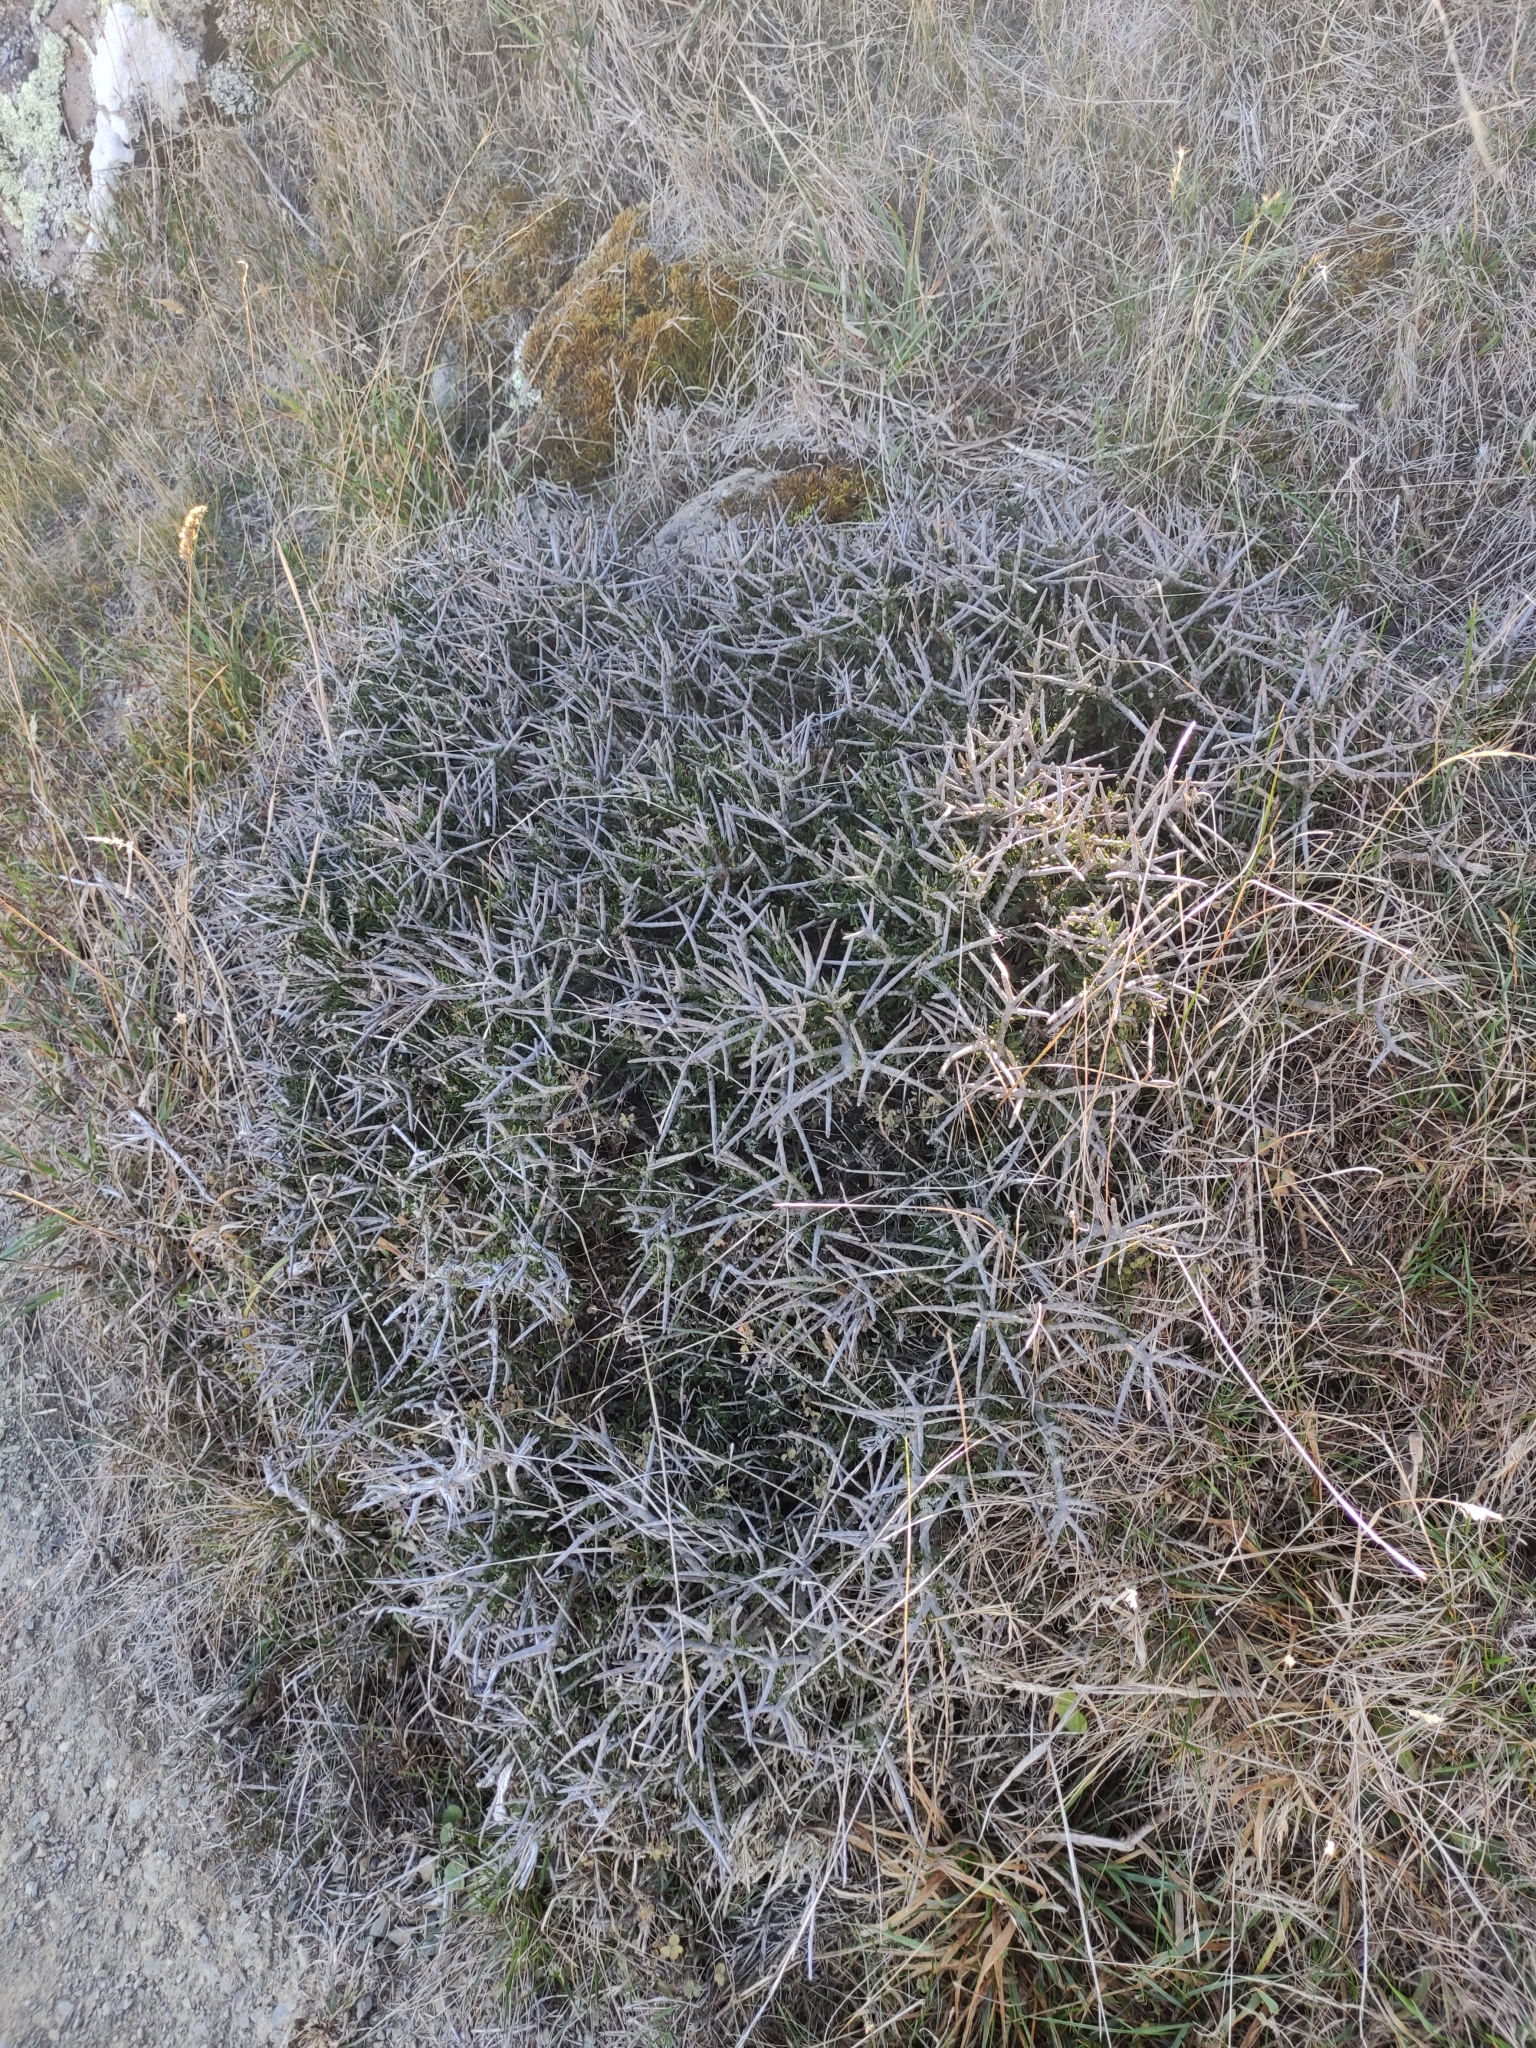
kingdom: Plantae
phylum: Tracheophyta
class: Magnoliopsida
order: Malpighiales
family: Violaceae
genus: Melicytus
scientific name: Melicytus alpinus
